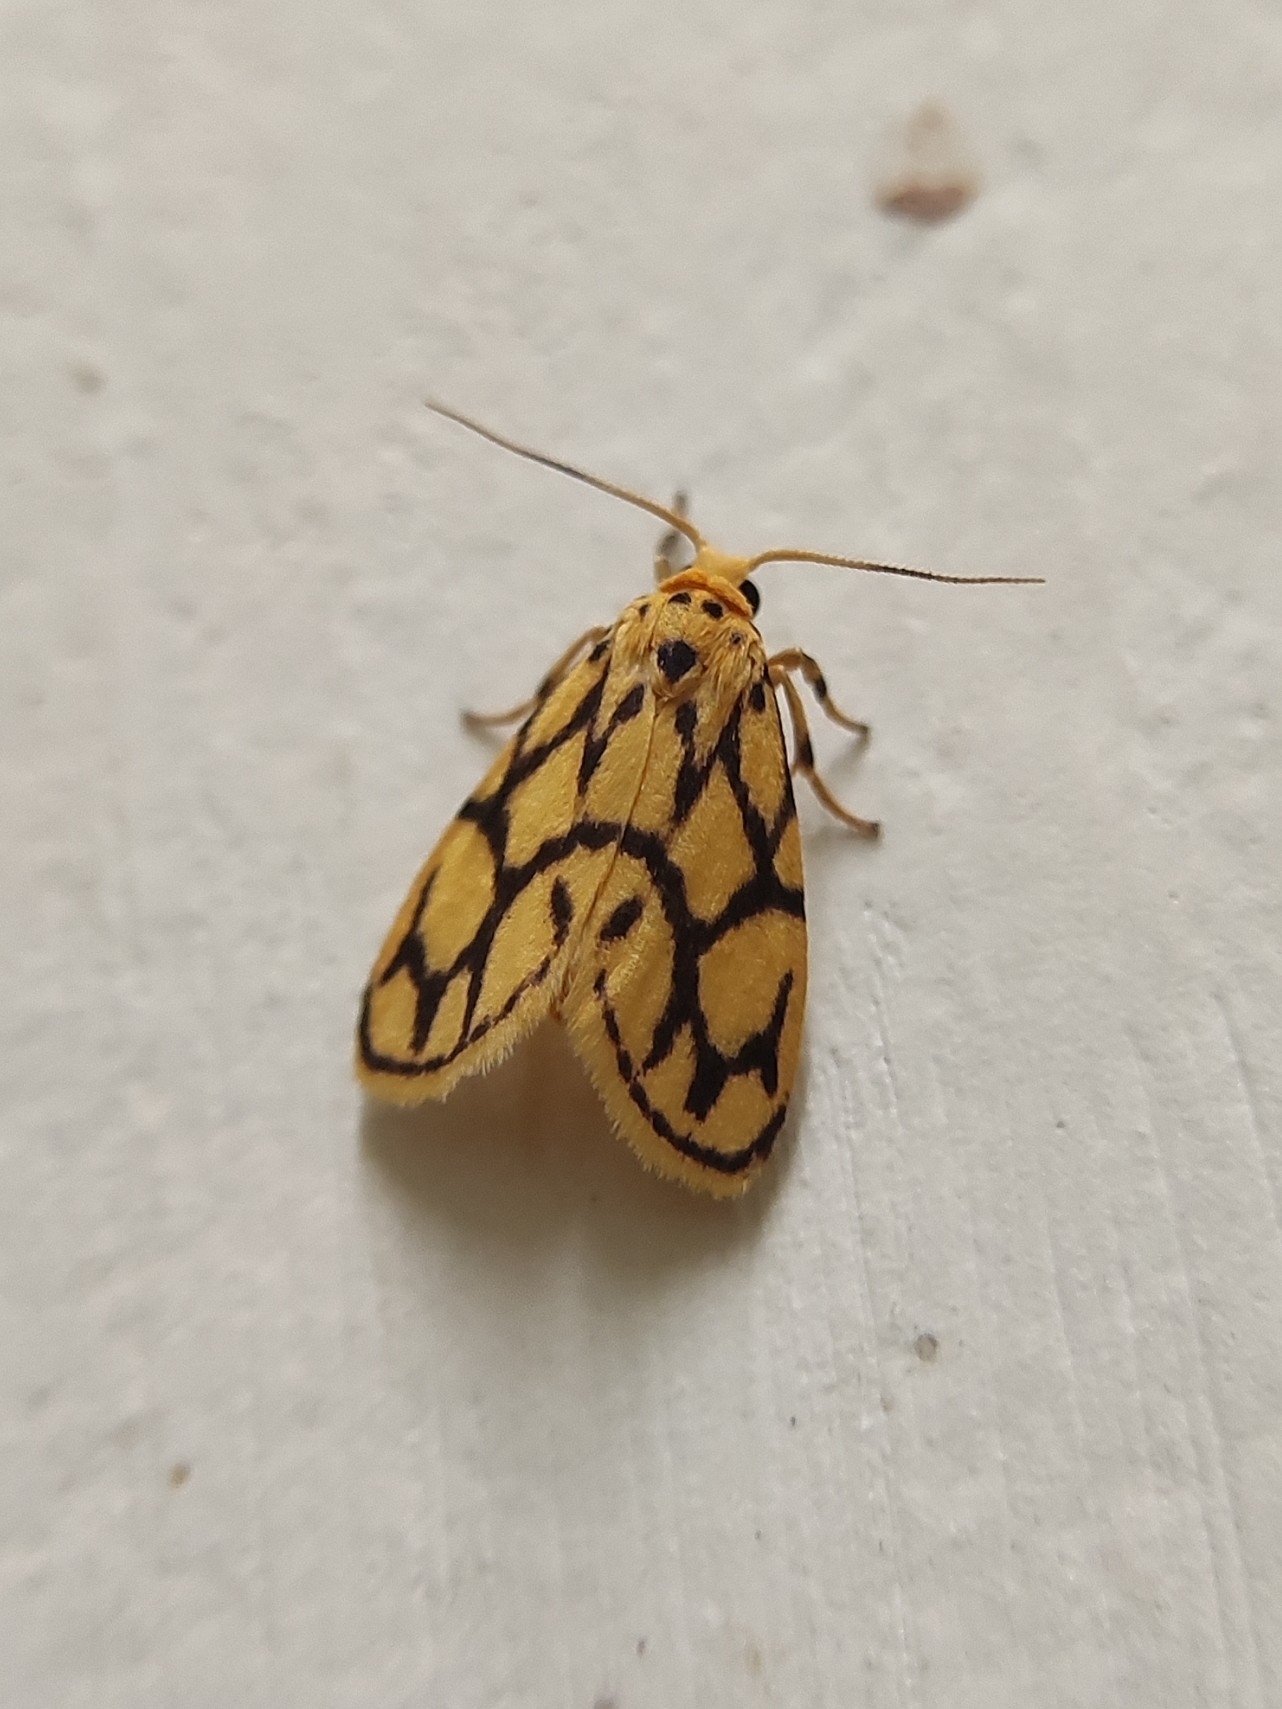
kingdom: Animalia
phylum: Arthropoda
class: Insecta
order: Lepidoptera
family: Erebidae
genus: Miltochrista
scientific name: Miltochrista conjunctana
